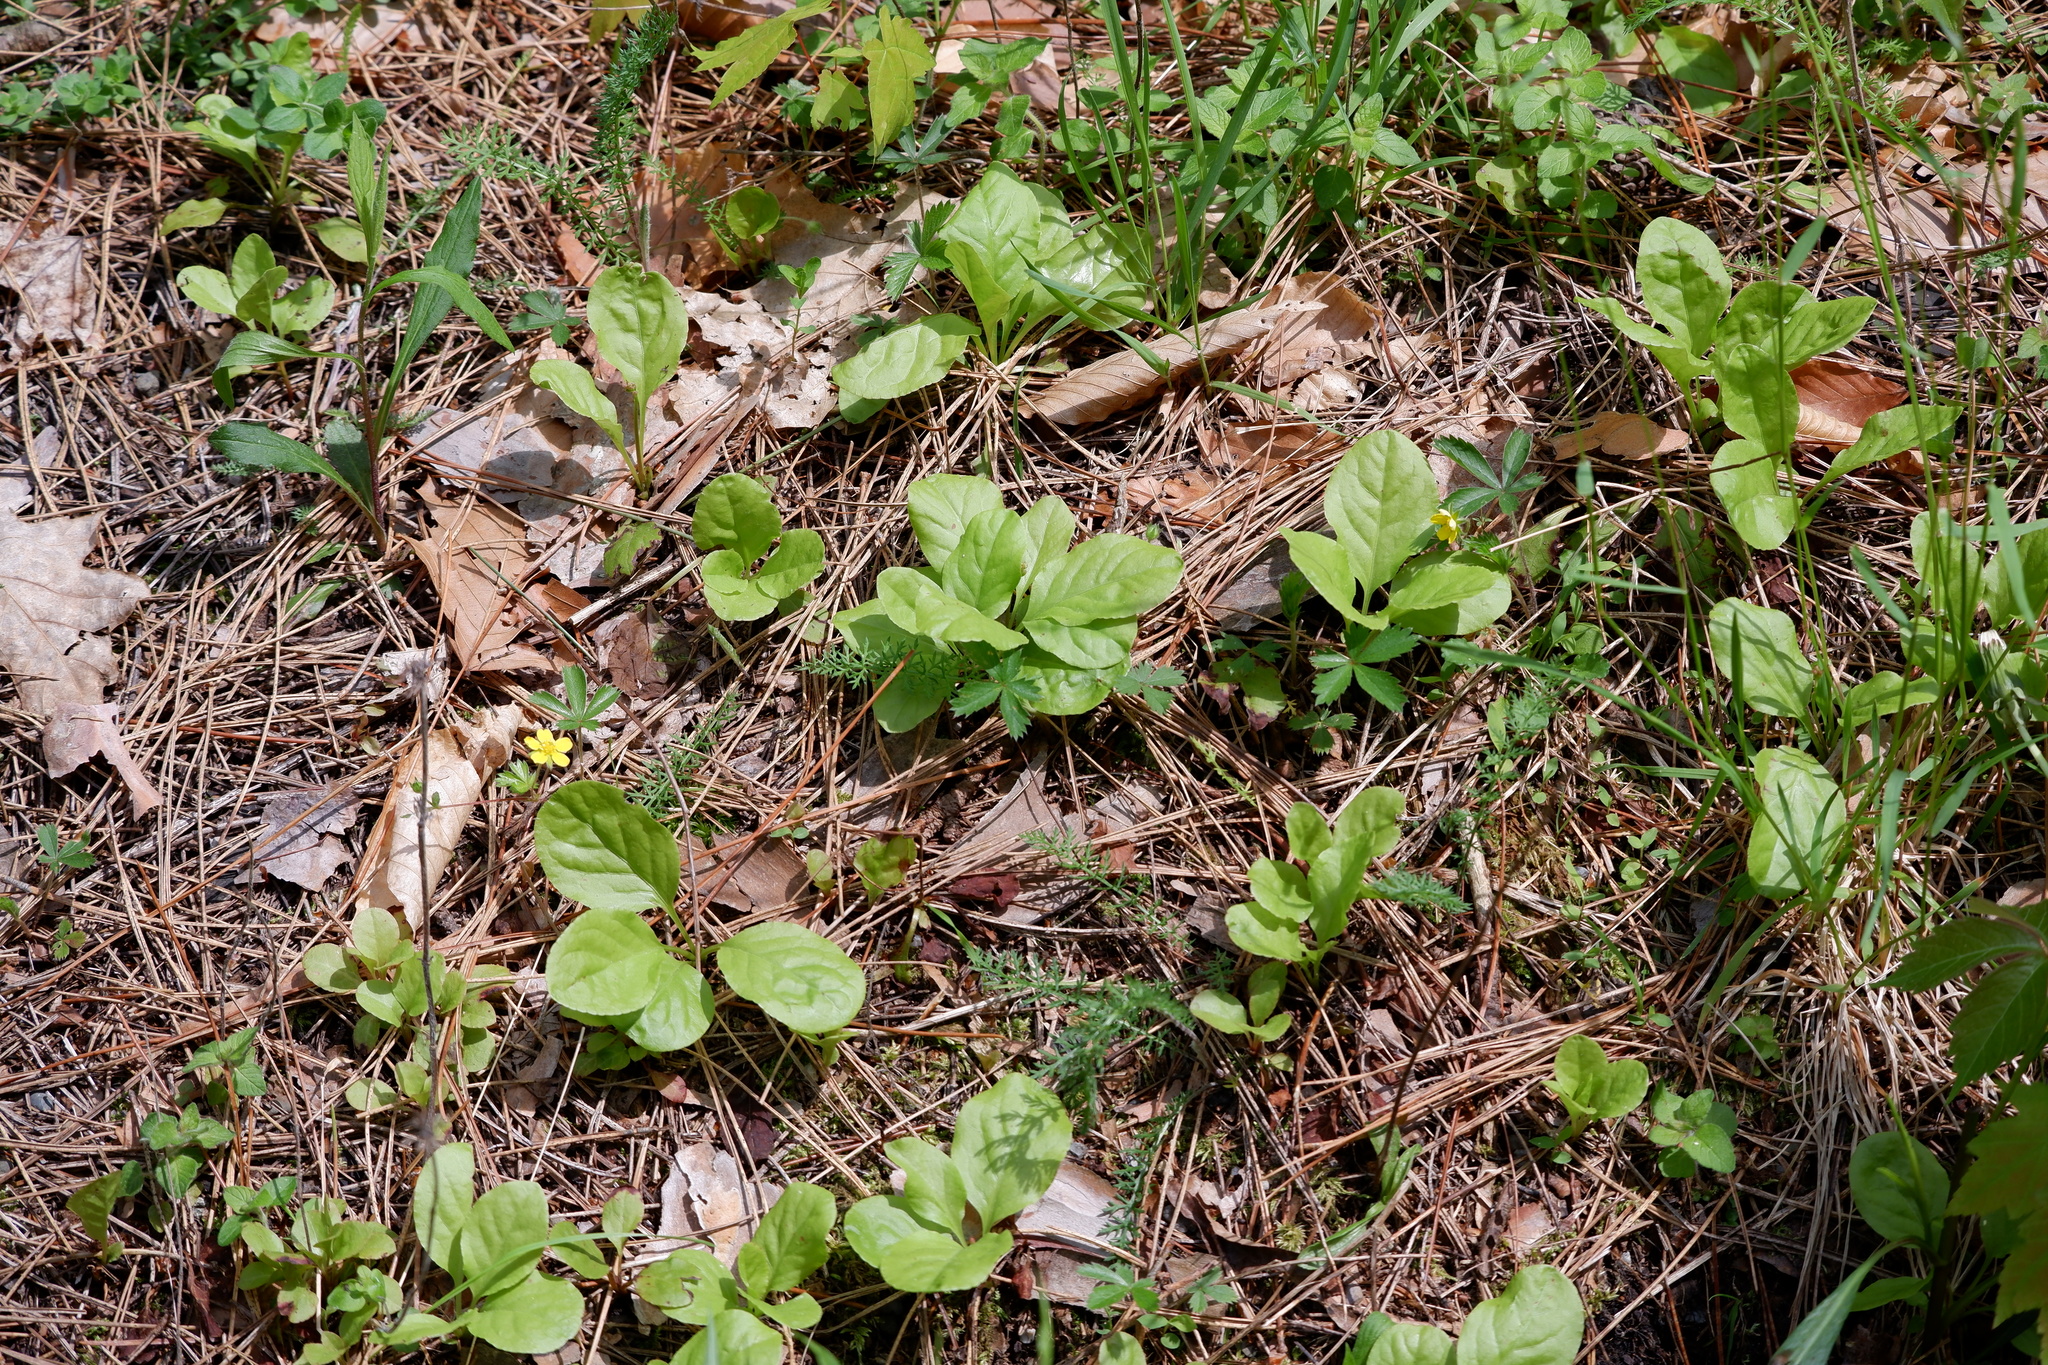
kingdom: Plantae
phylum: Tracheophyta
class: Magnoliopsida
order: Ericales
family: Ericaceae
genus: Pyrola
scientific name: Pyrola elliptica
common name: Shinleaf
